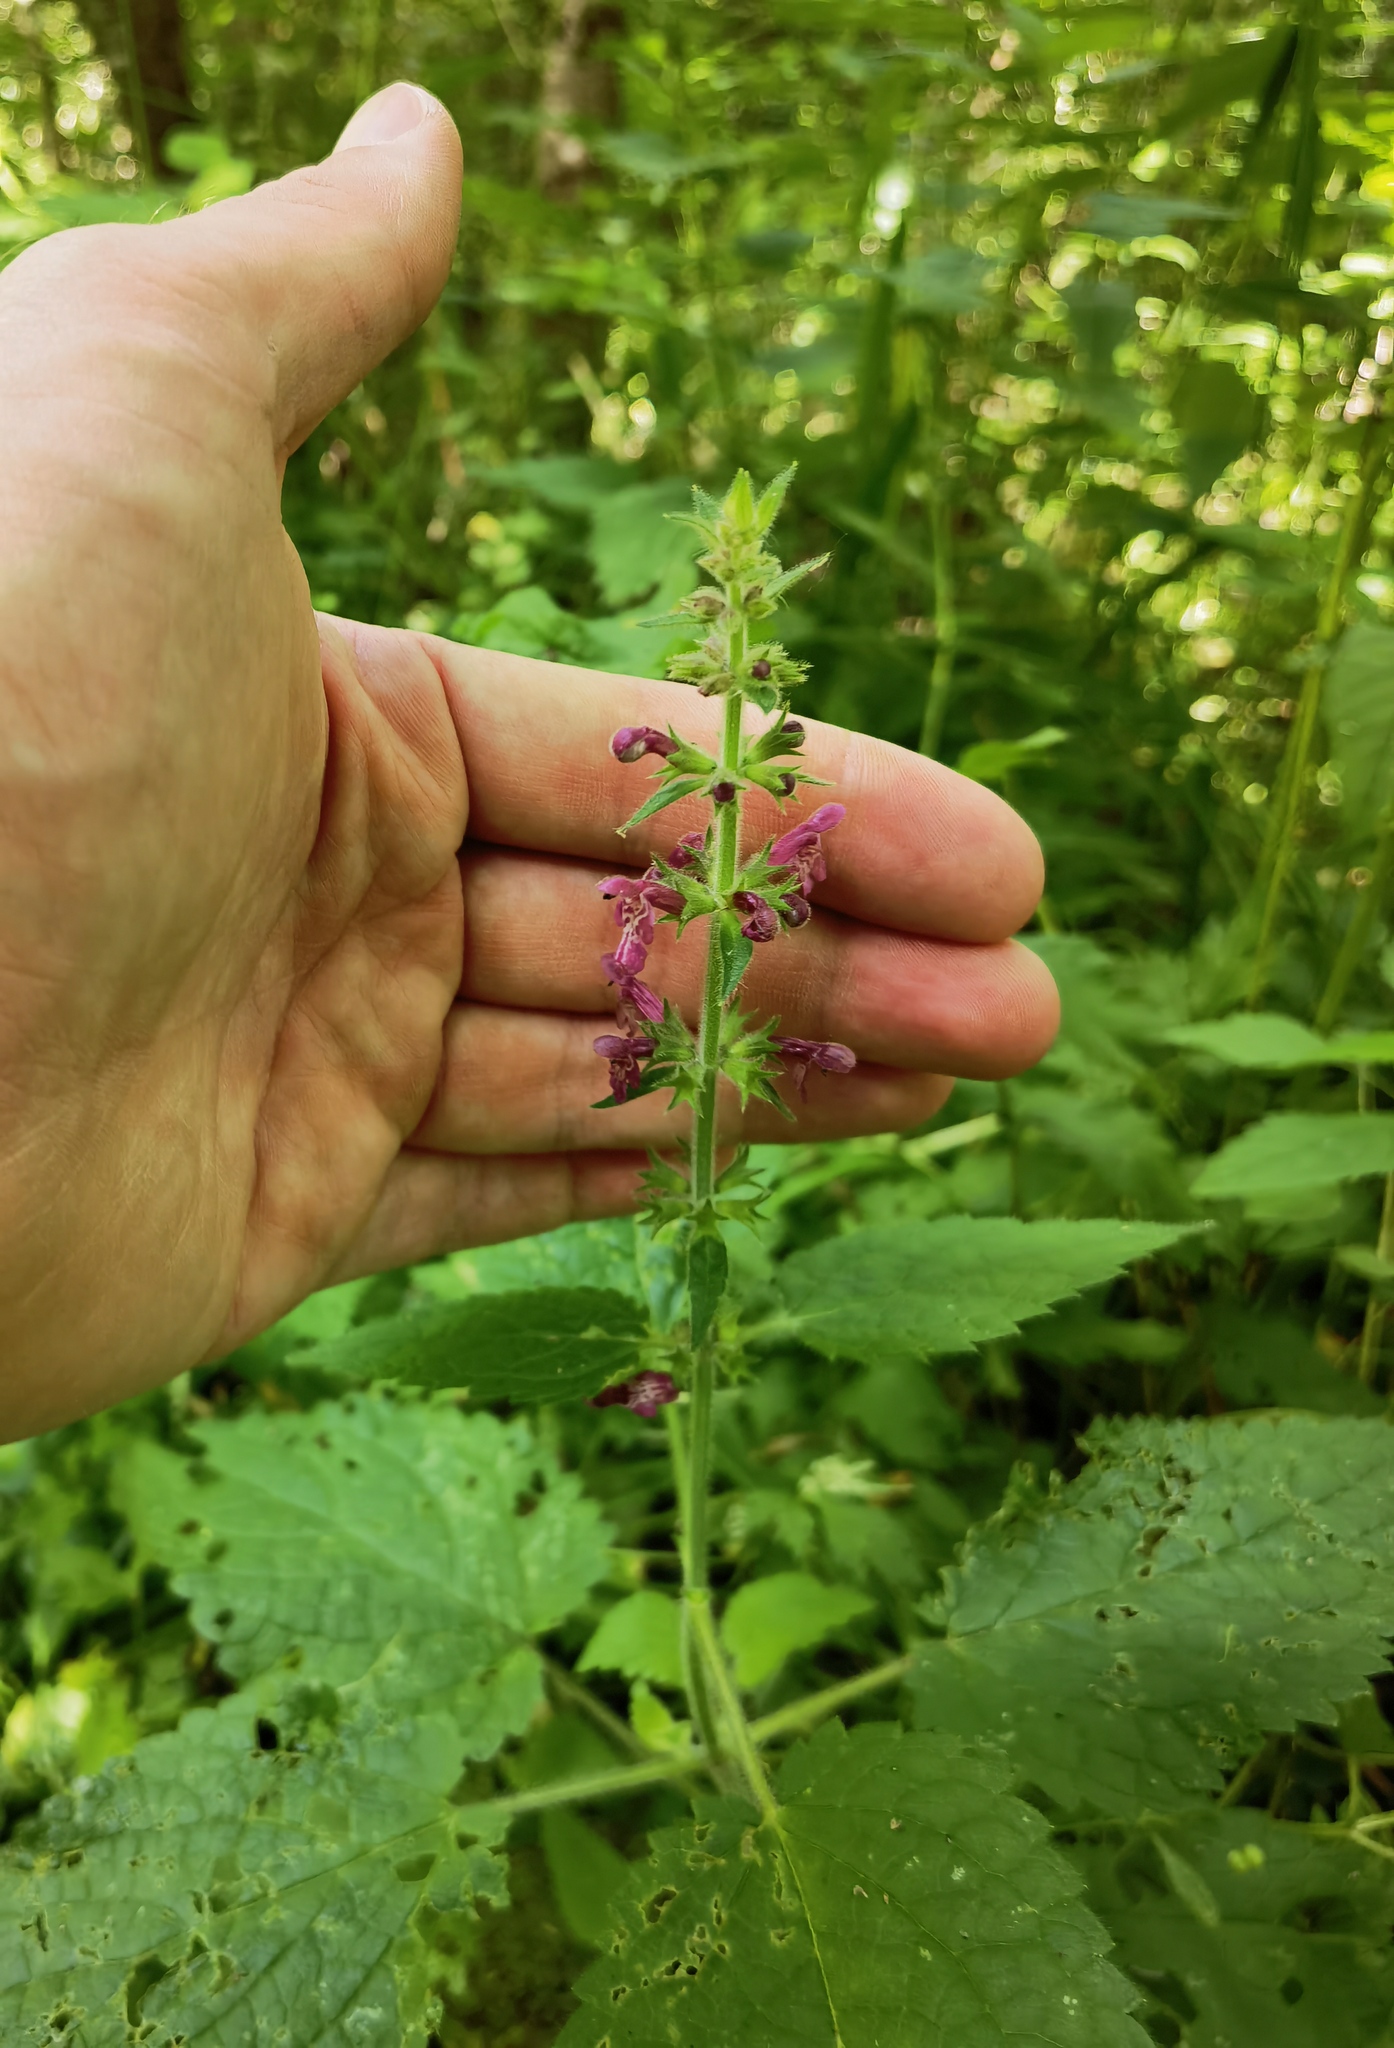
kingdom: Plantae
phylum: Tracheophyta
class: Magnoliopsida
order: Lamiales
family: Lamiaceae
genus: Stachys
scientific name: Stachys sylvatica
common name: Hedge woundwort
